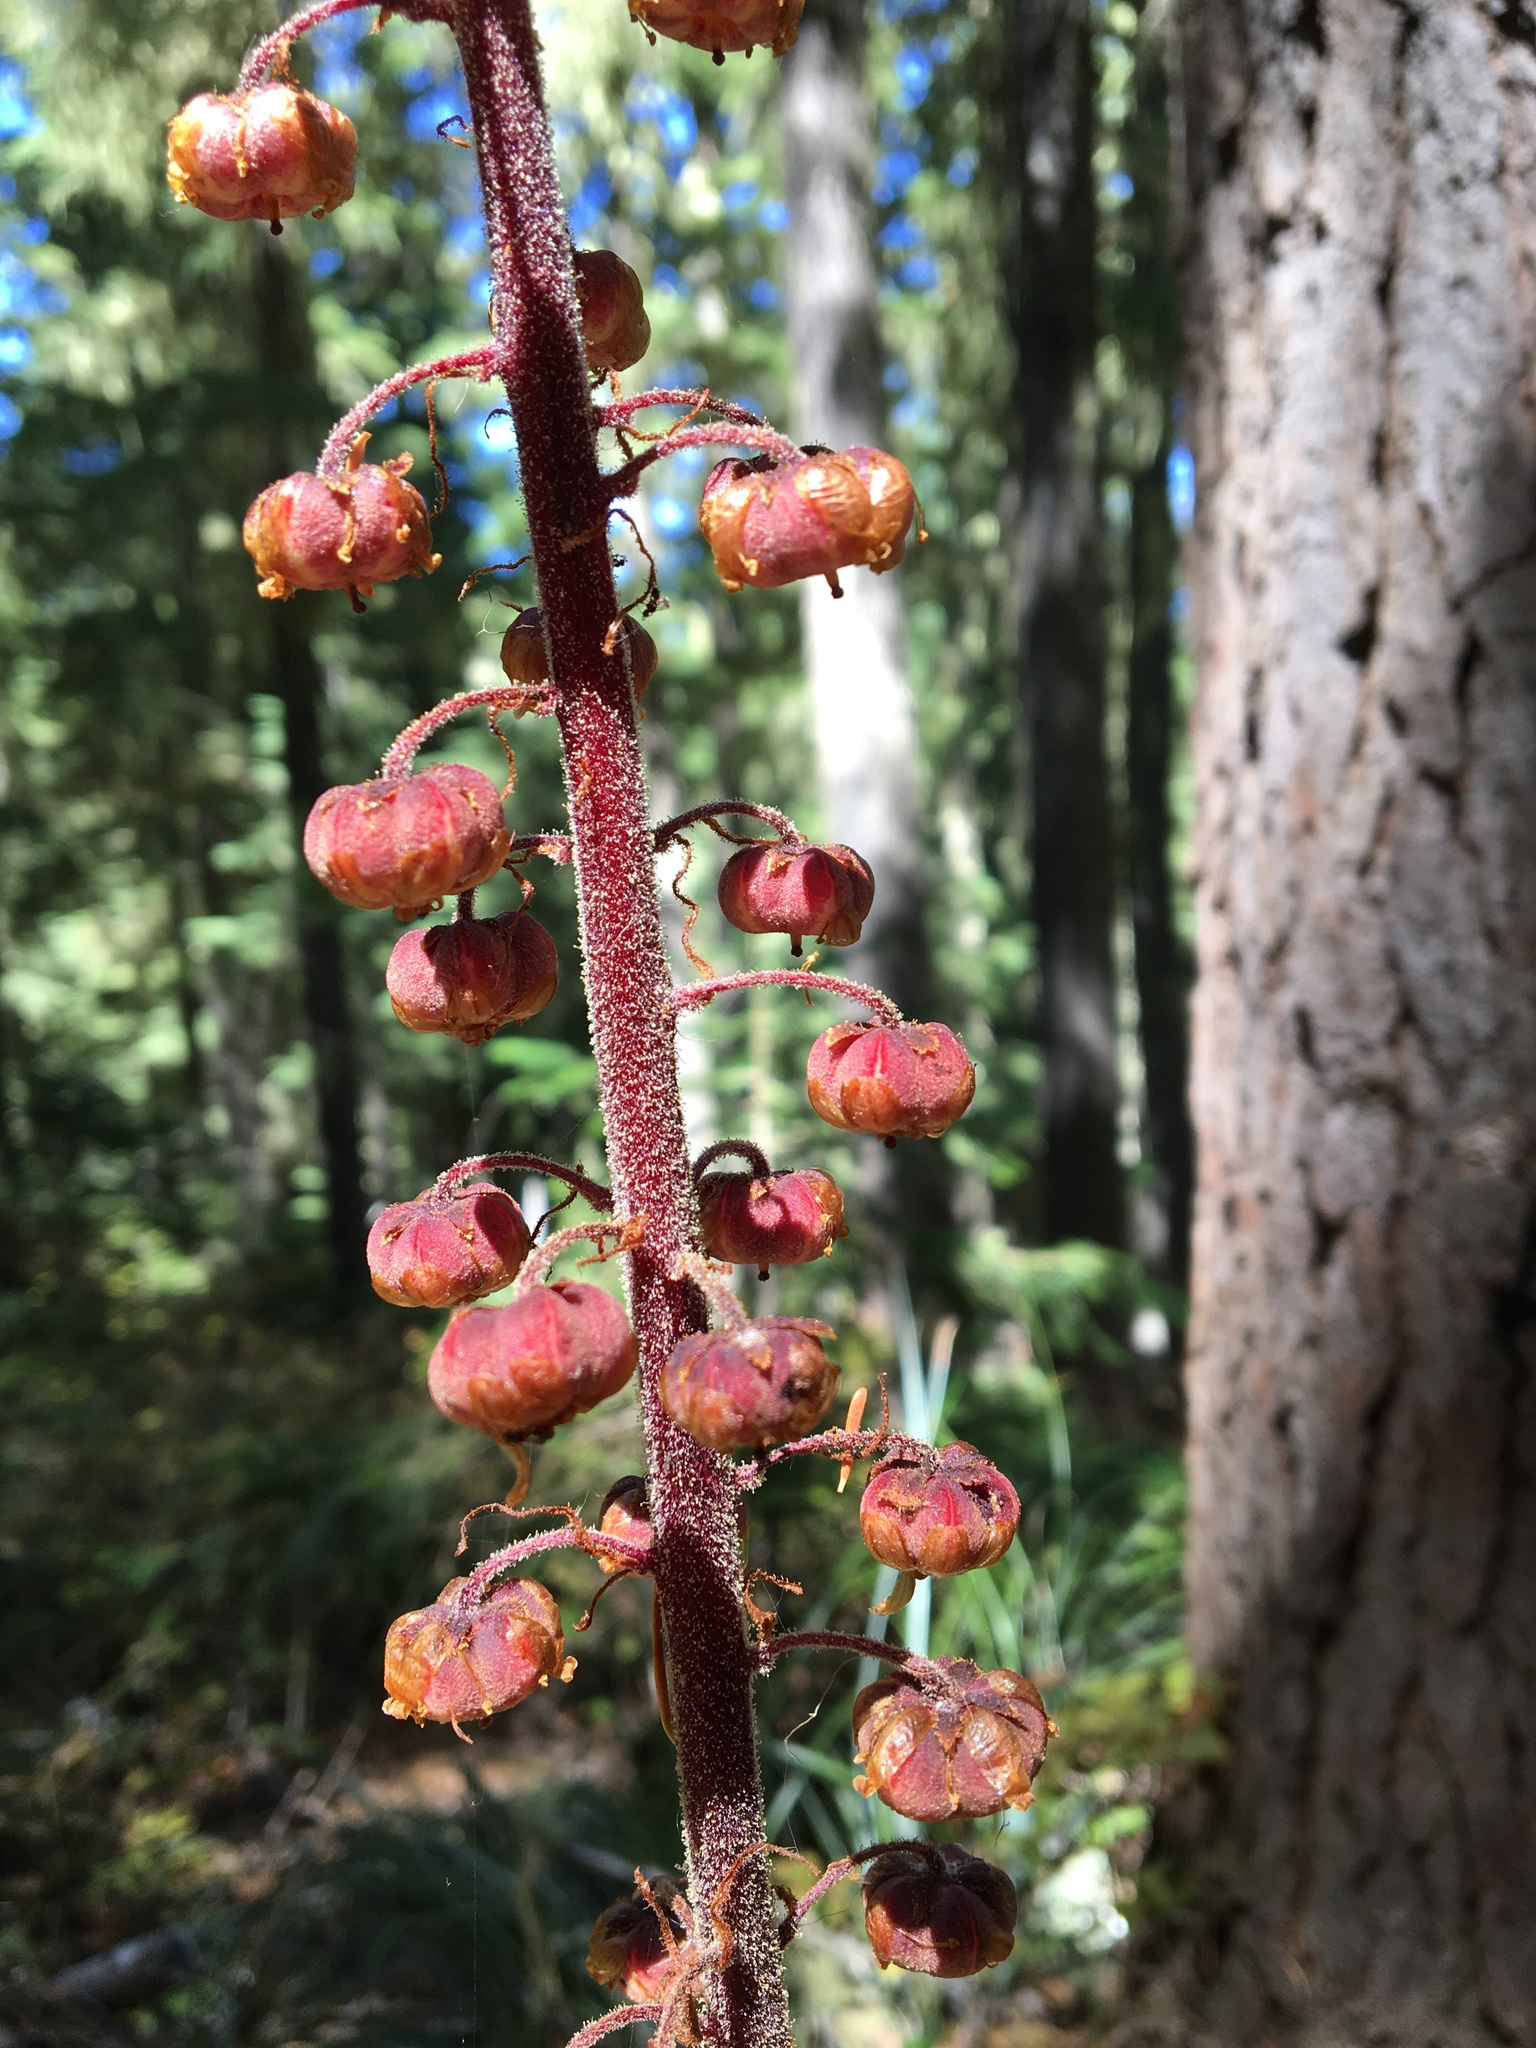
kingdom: Plantae
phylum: Tracheophyta
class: Magnoliopsida
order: Ericales
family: Ericaceae
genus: Pterospora
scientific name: Pterospora andromedea
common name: Giant bird's-nest
